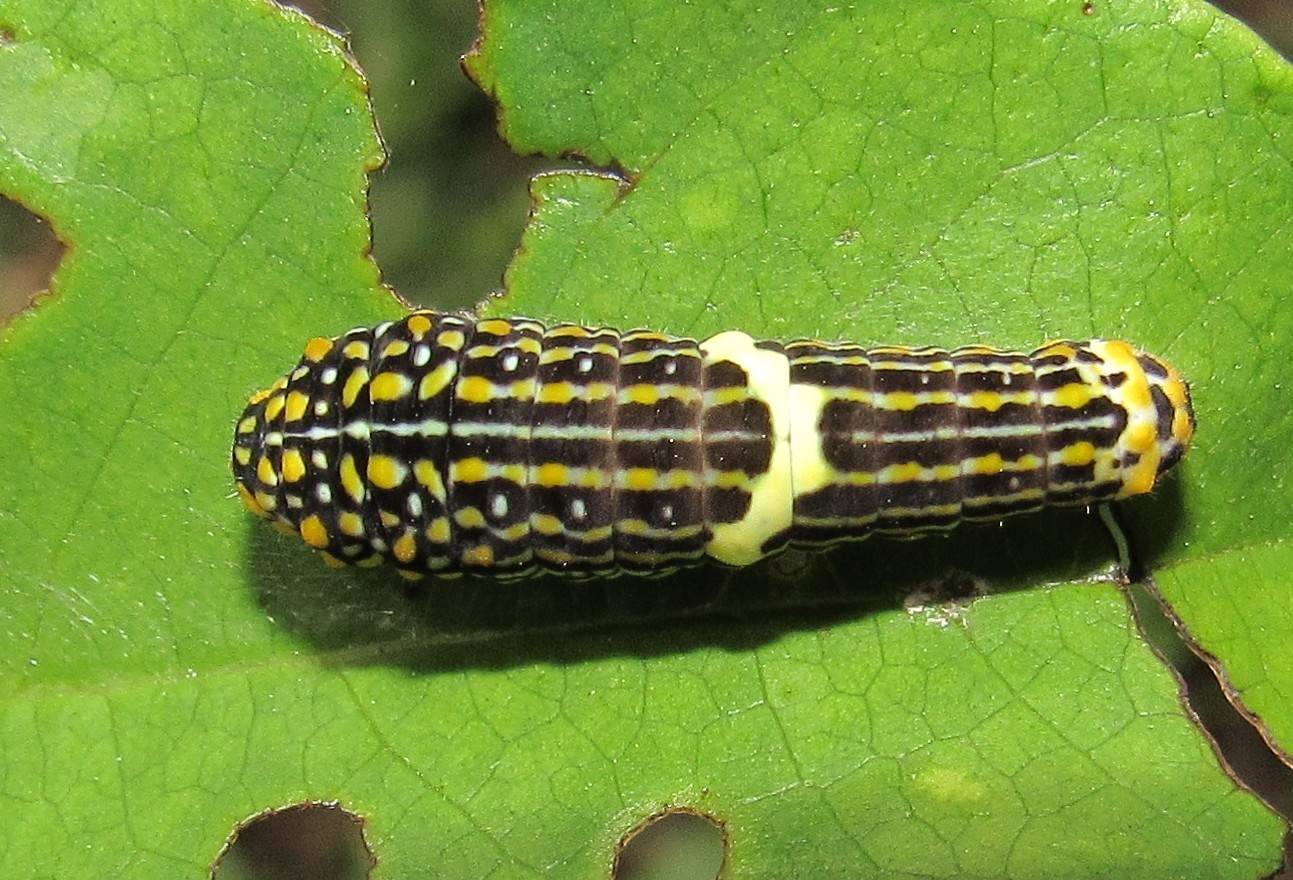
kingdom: Animalia
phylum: Arthropoda
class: Insecta
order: Lepidoptera
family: Papilionidae
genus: Mimoides
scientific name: Mimoides lysithous
